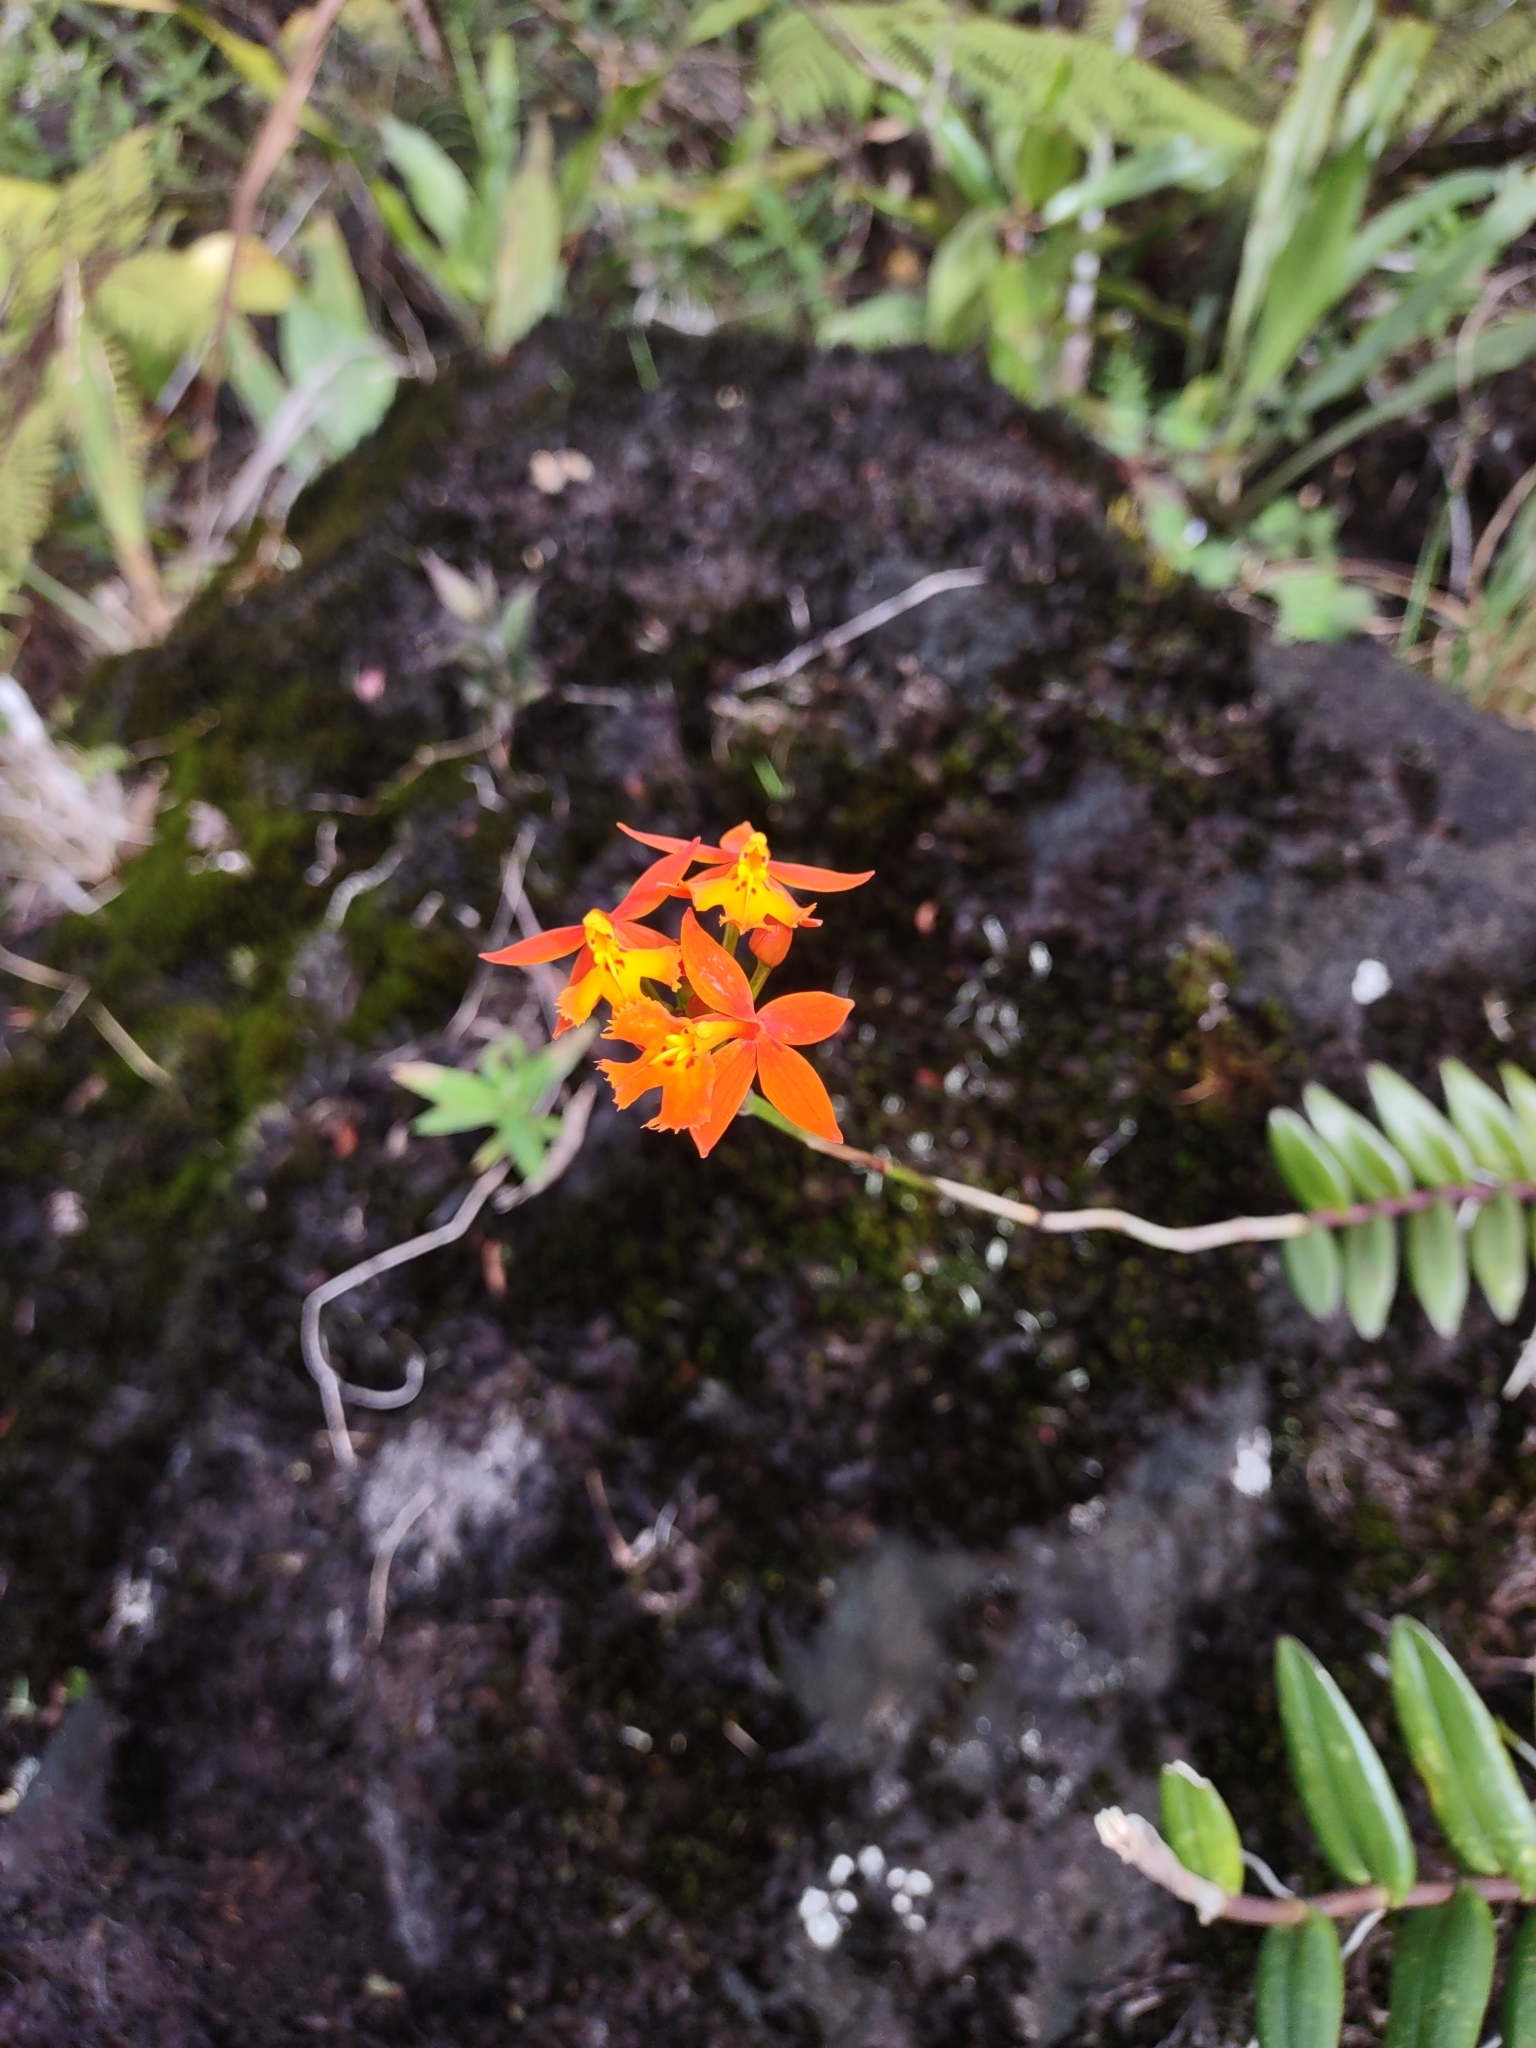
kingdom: Plantae
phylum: Tracheophyta
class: Liliopsida
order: Asparagales
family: Orchidaceae
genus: Epidendrum
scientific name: Epidendrum radicans
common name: Fire star orchid
